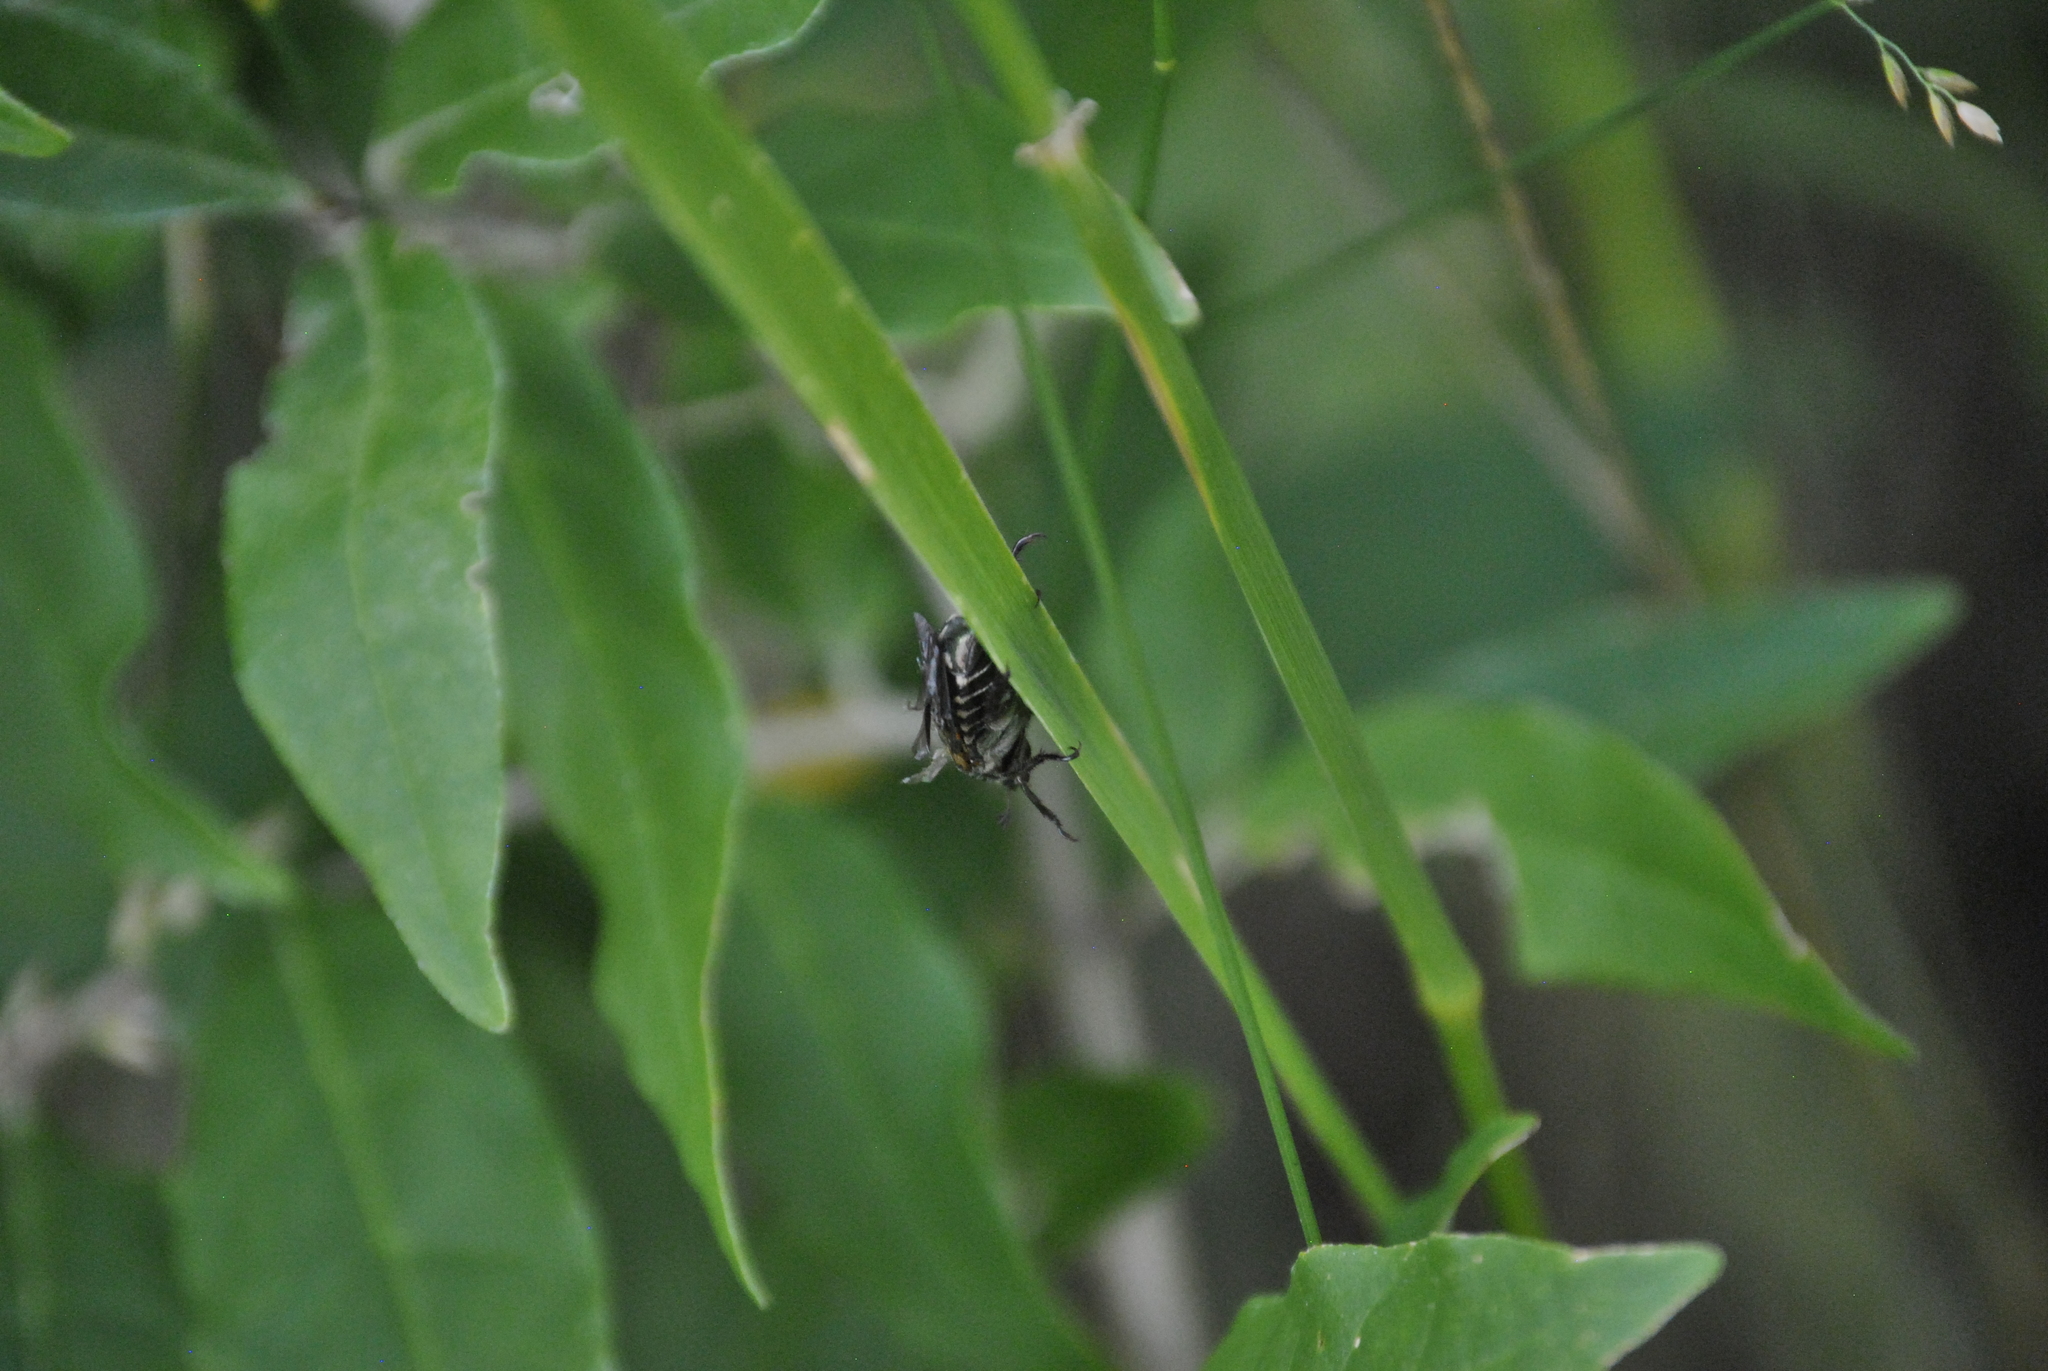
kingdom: Animalia
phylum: Arthropoda
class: Insecta
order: Coleoptera
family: Scarabaeidae
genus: Popillia
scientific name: Popillia japonica
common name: Japanese beetle
